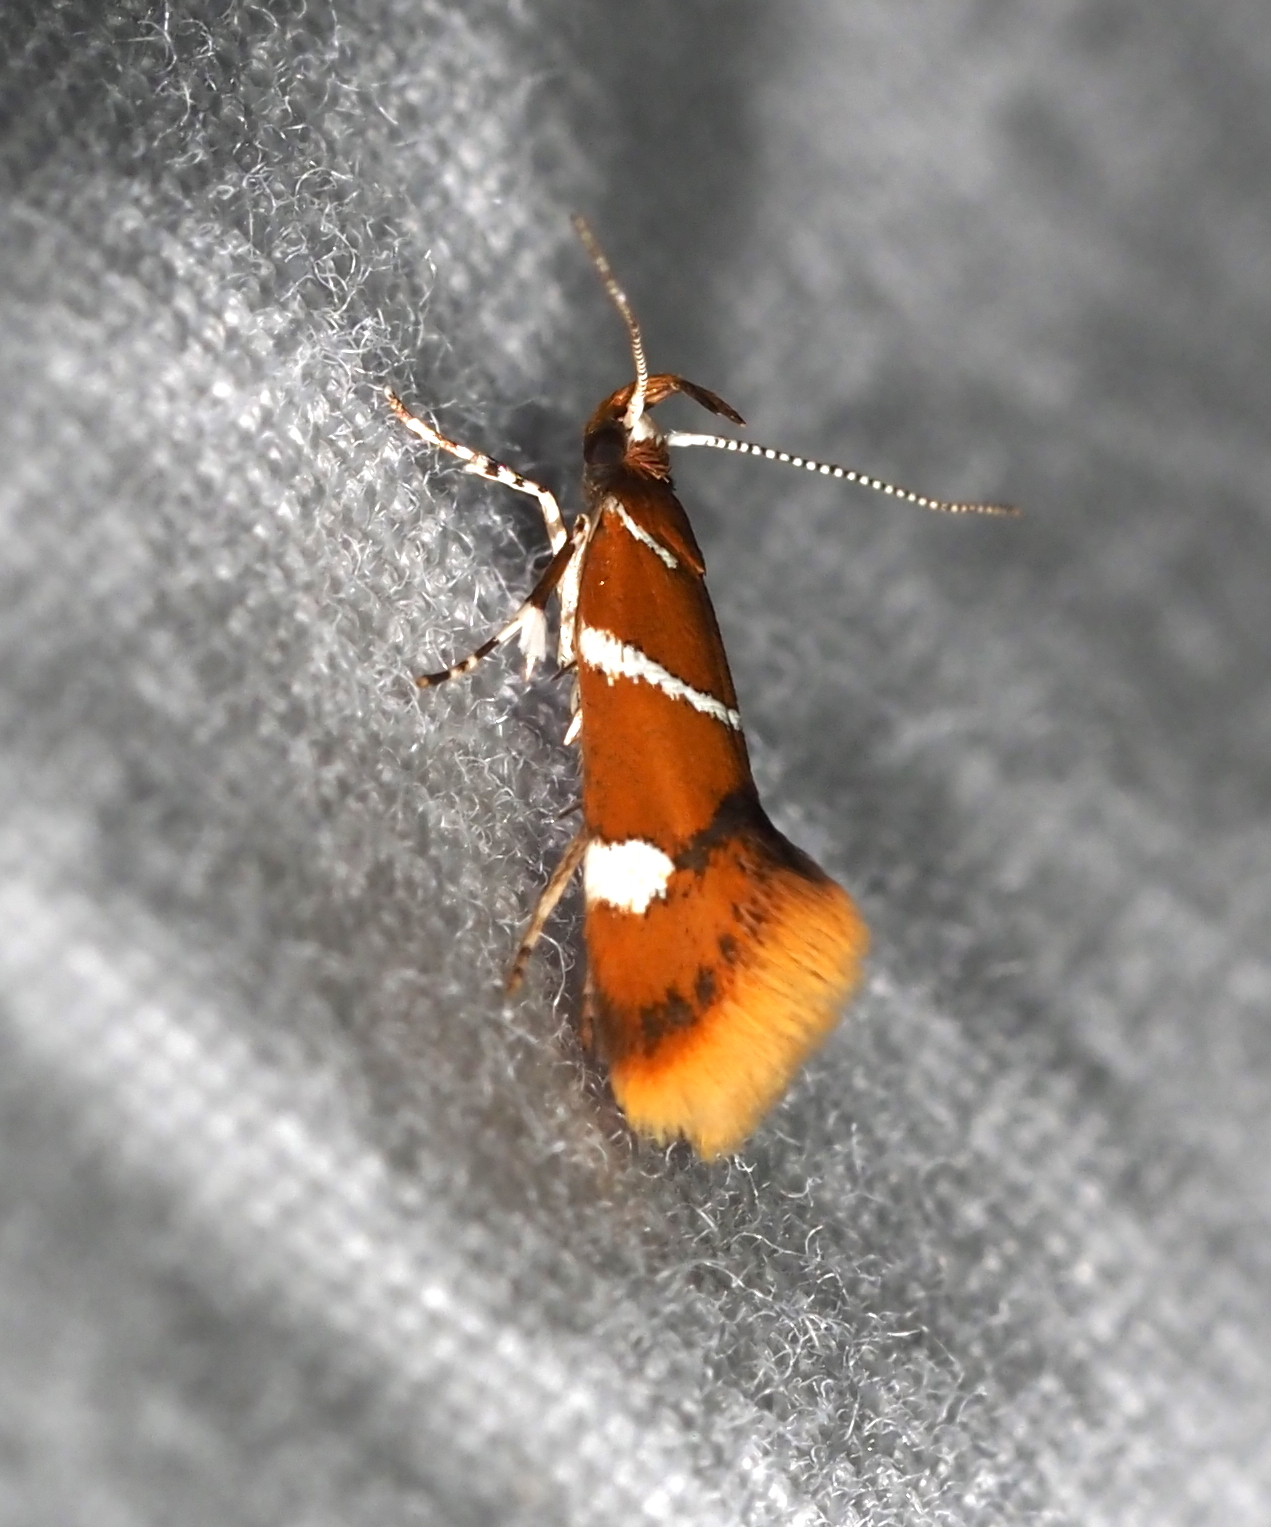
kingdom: Animalia
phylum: Arthropoda
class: Insecta
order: Lepidoptera
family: Oecophoridae
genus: Promalactis
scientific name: Promalactis suzukiella
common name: Moth
